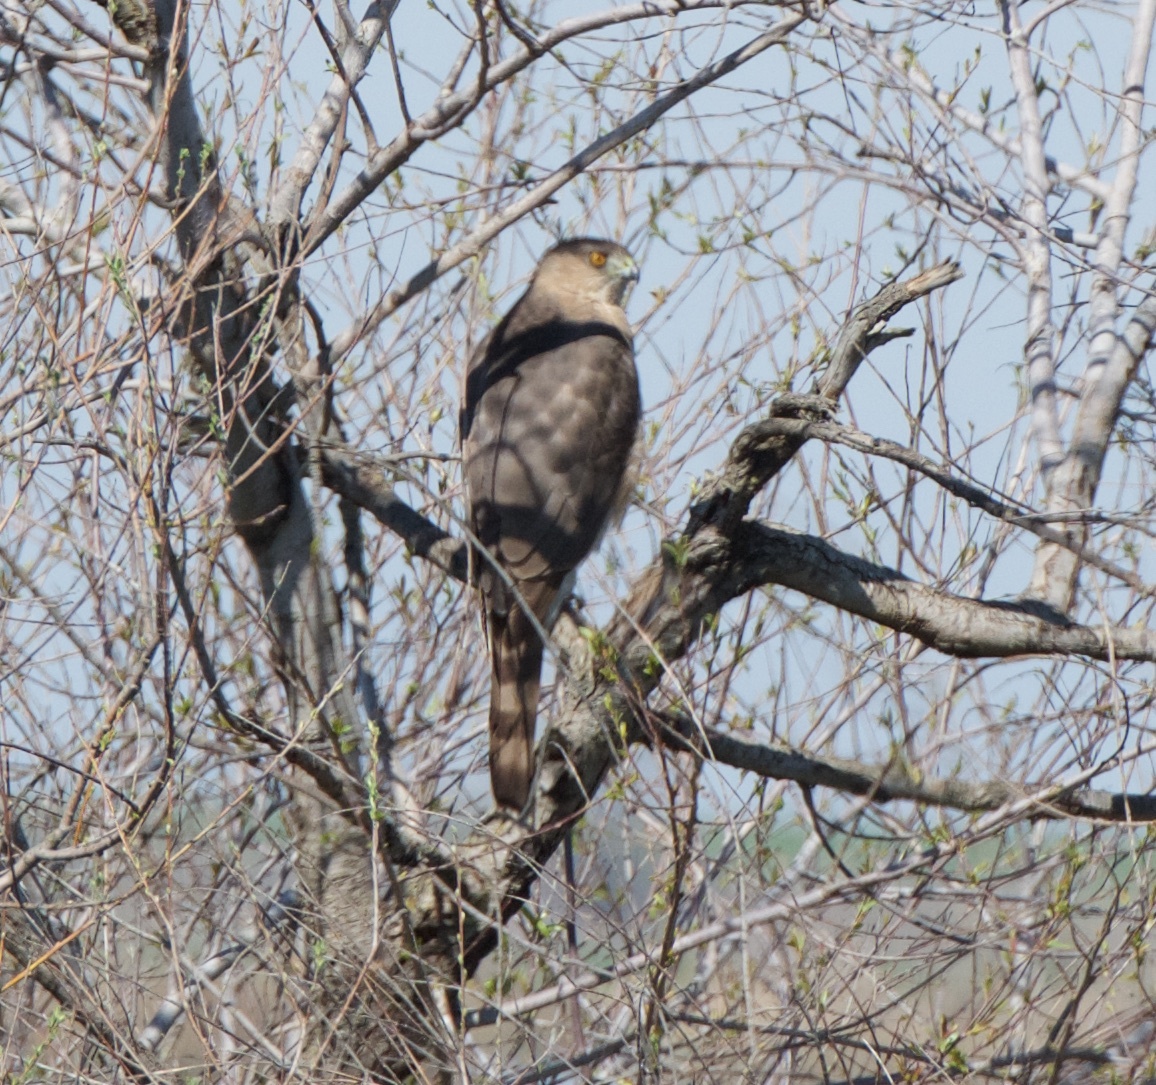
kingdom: Animalia
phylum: Chordata
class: Aves
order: Accipitriformes
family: Accipitridae
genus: Accipiter
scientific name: Accipiter cooperii
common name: Cooper's hawk
